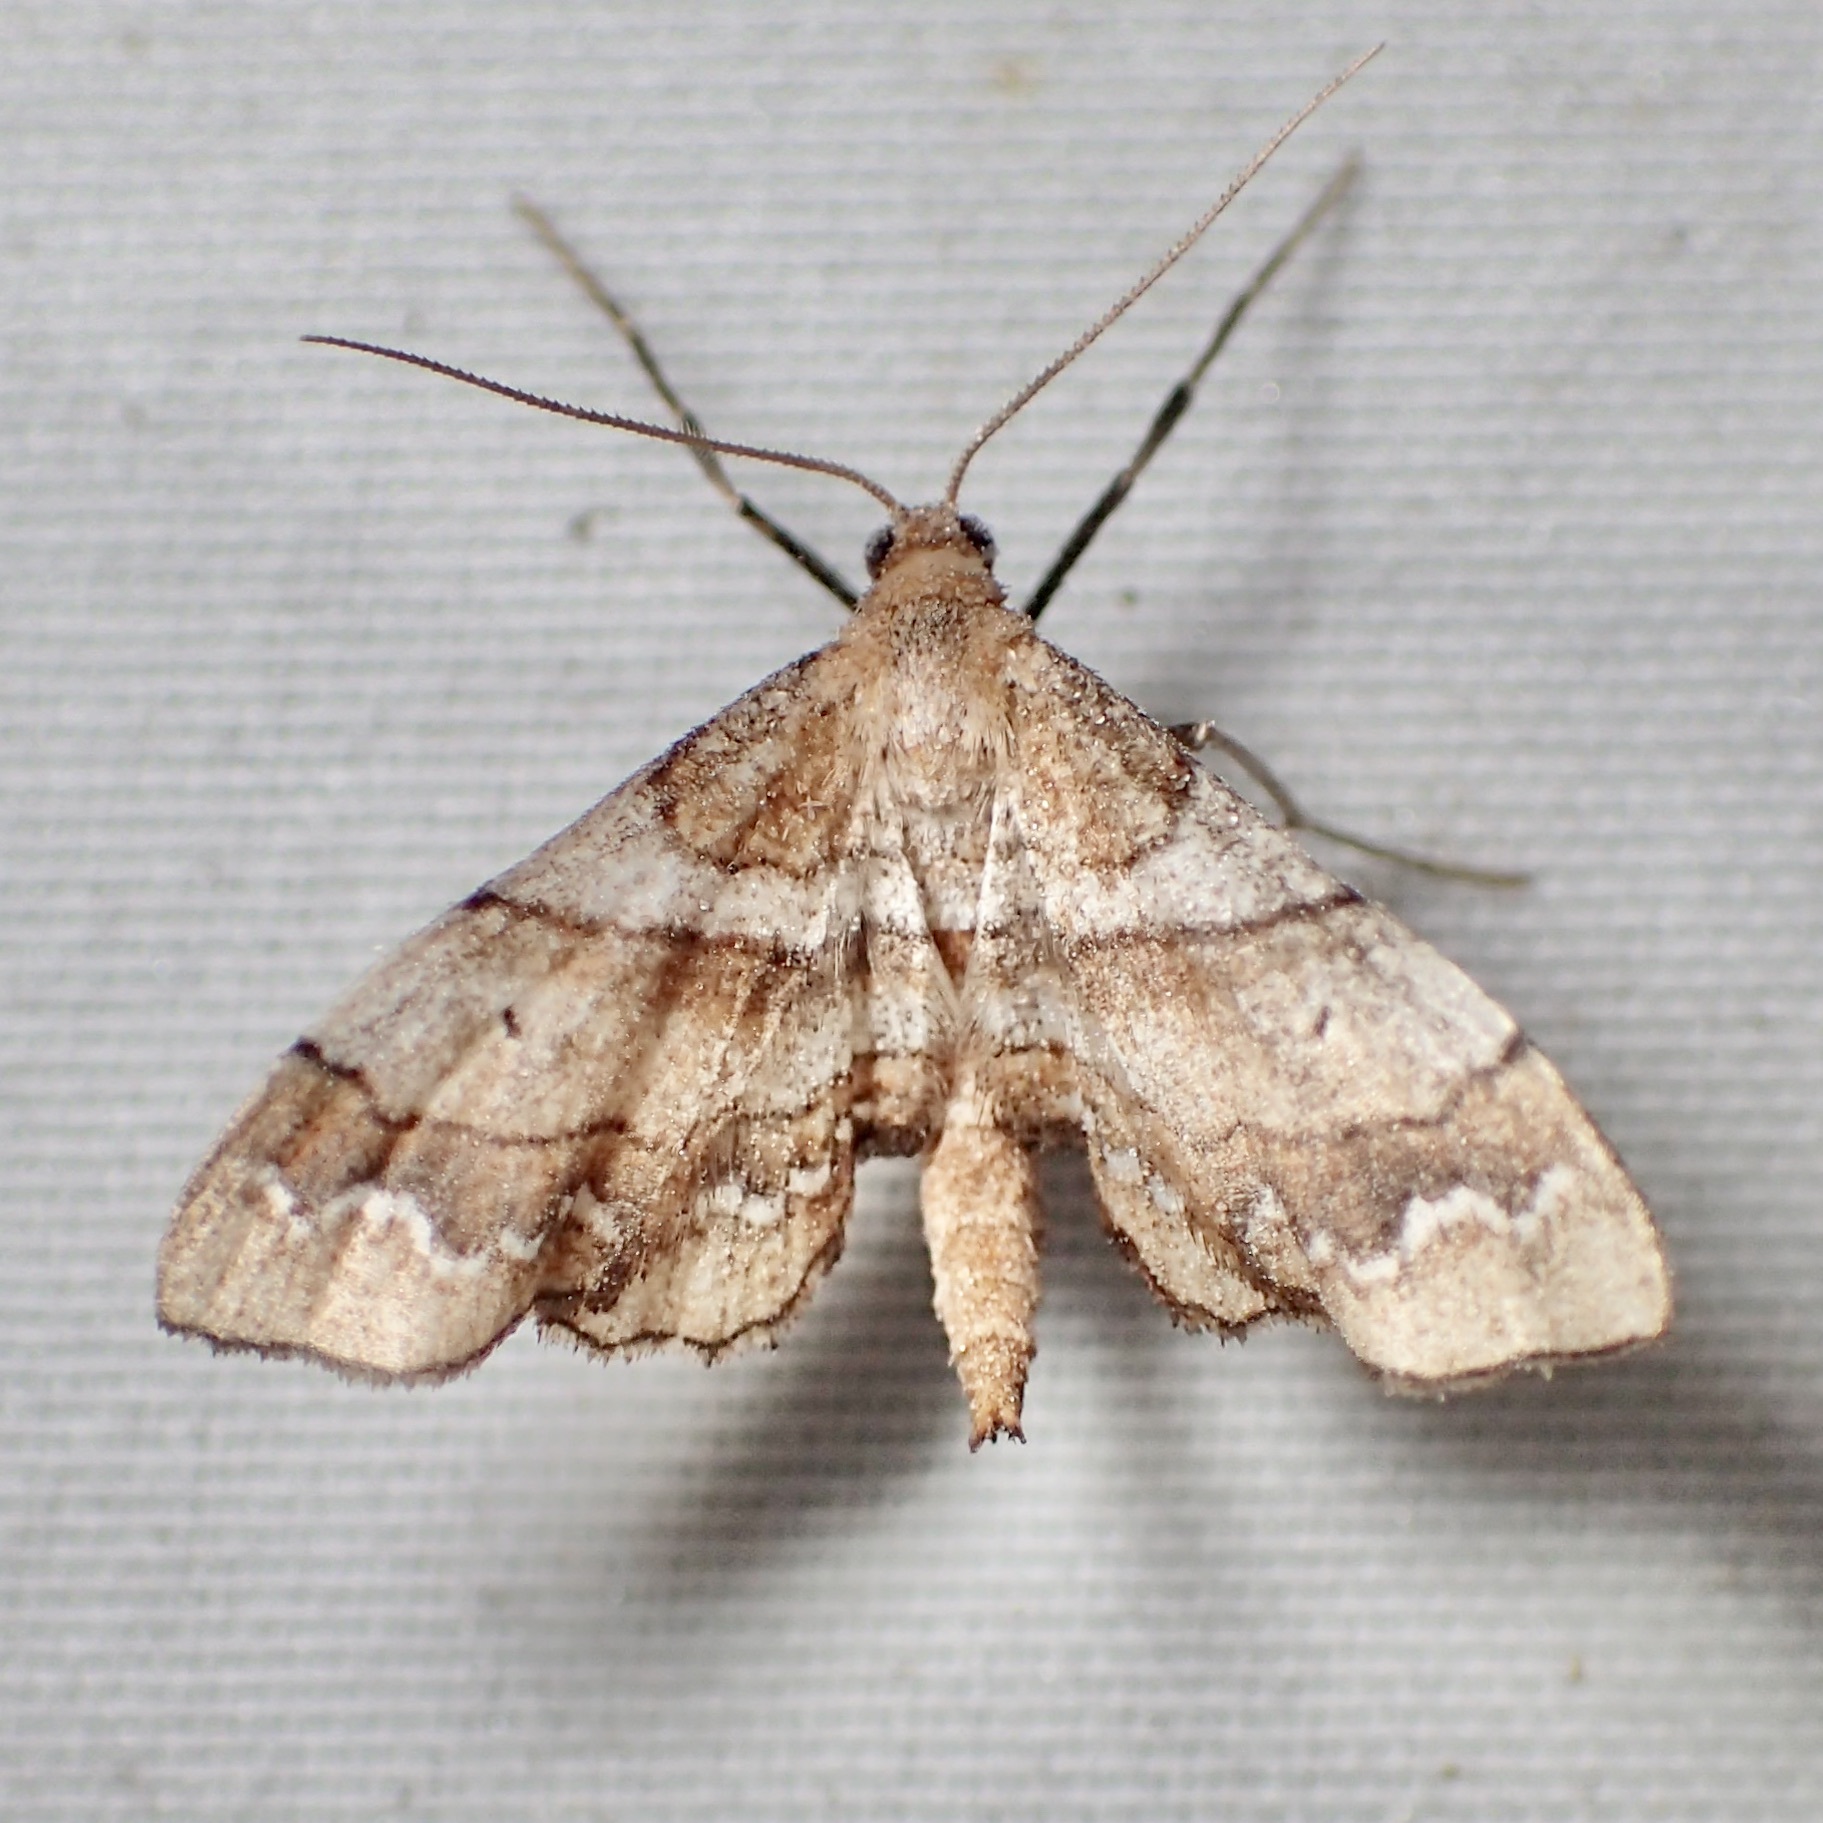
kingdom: Animalia
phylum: Arthropoda
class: Insecta
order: Lepidoptera
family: Geometridae
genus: Odontoptila
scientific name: Odontoptila obrimo
